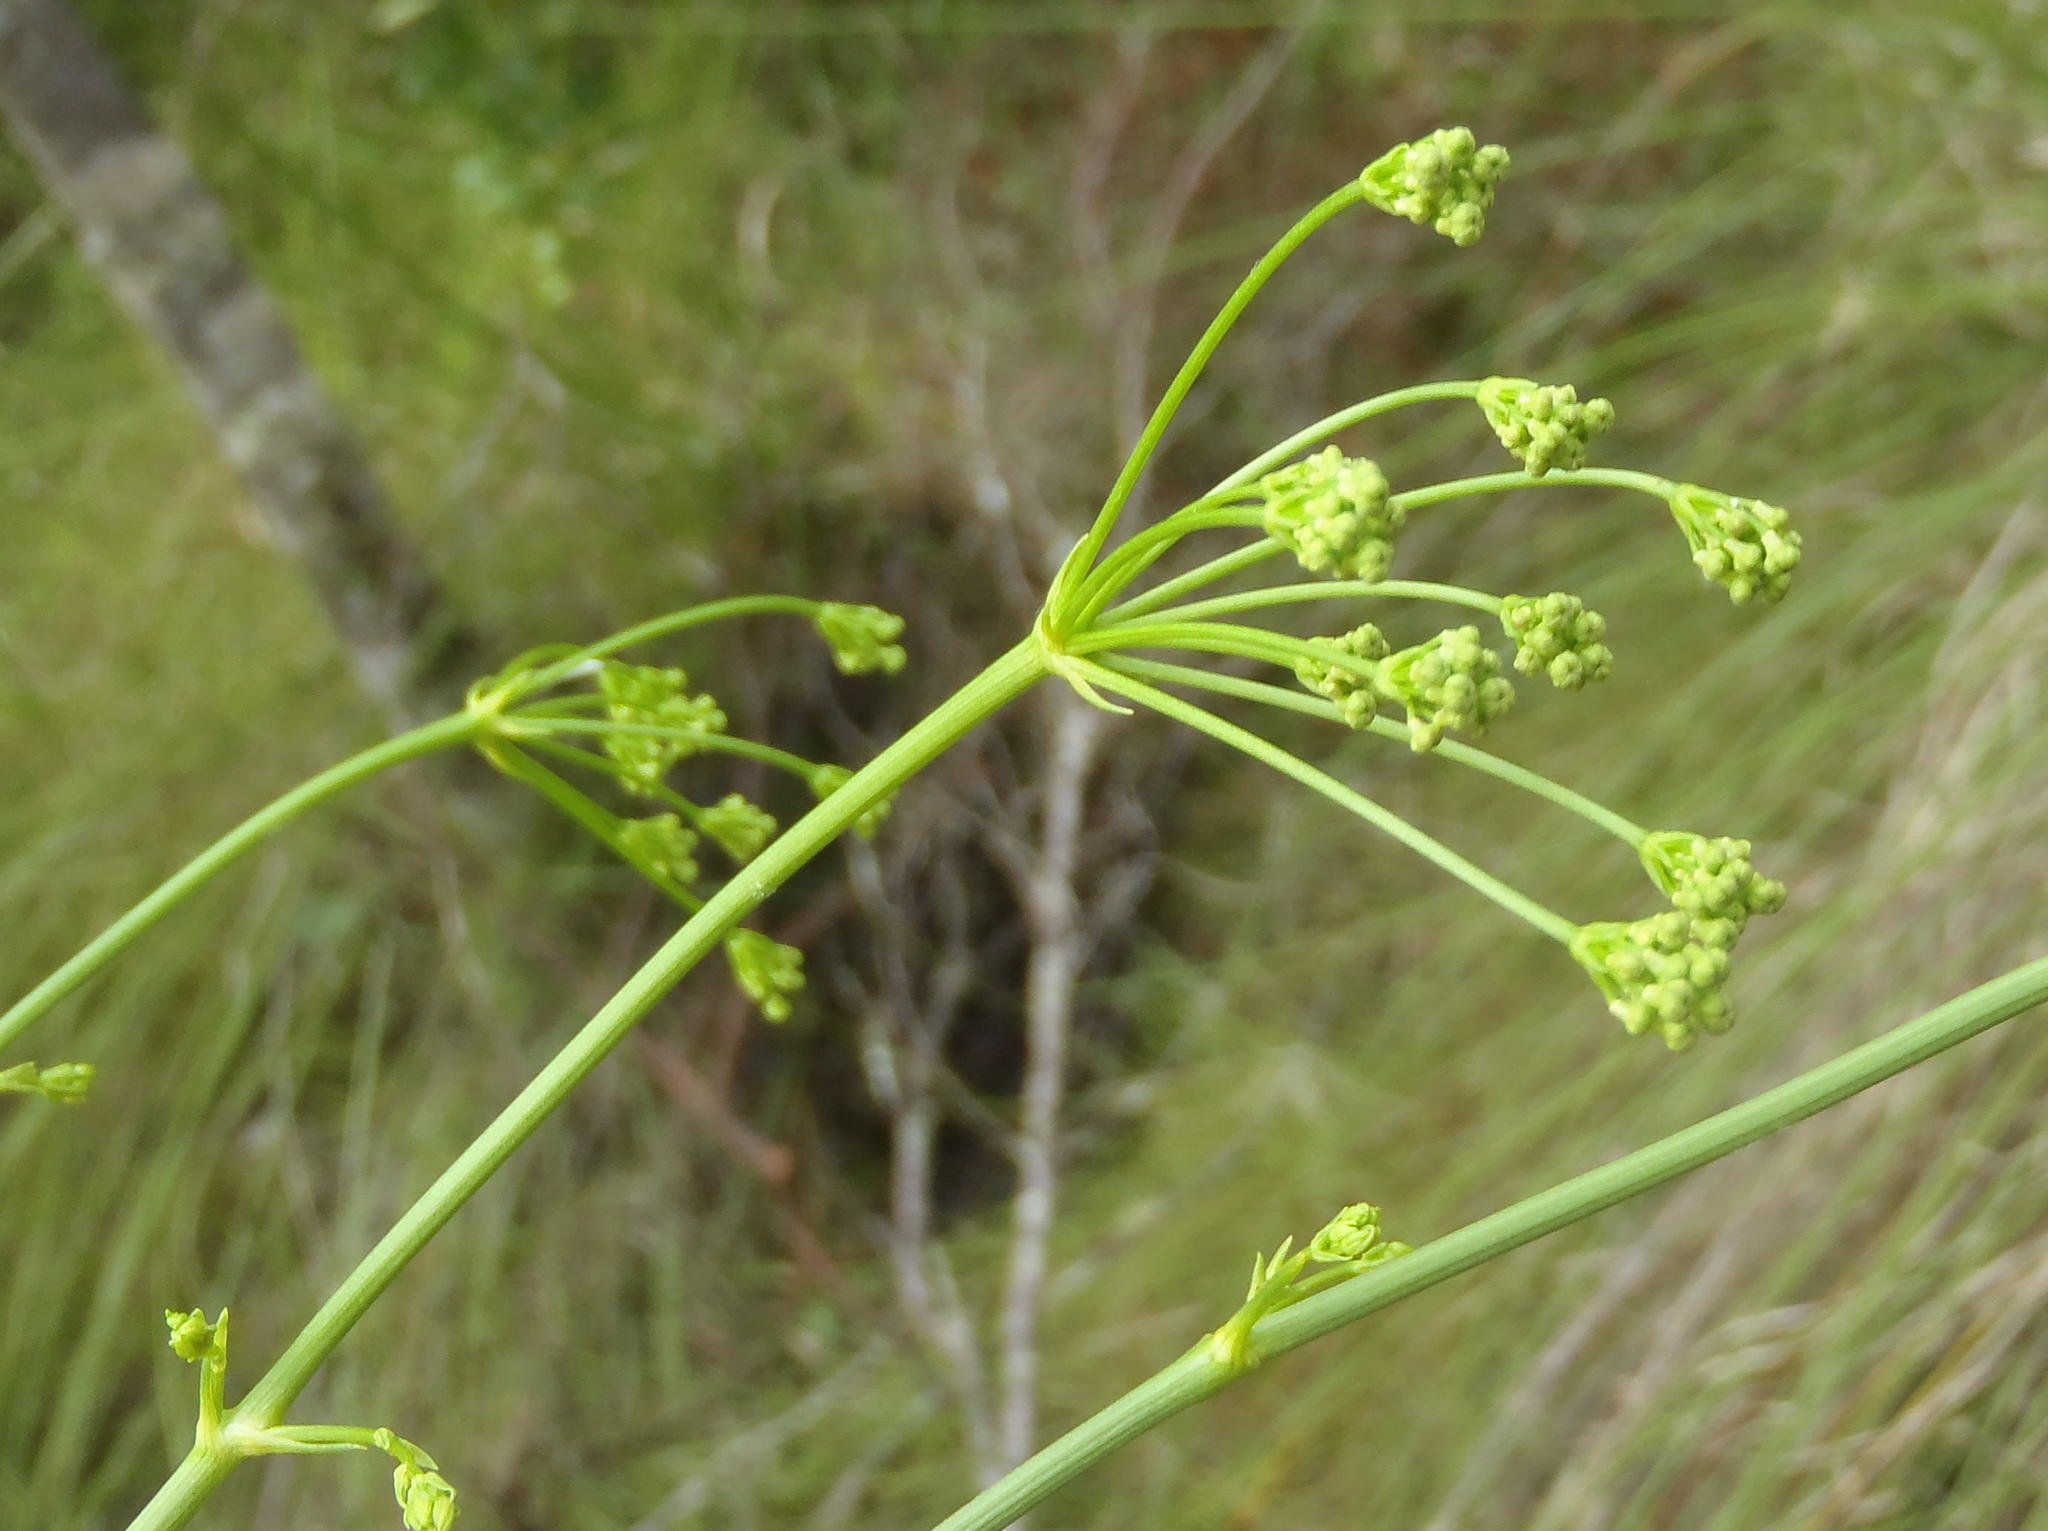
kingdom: Plantae
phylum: Tracheophyta
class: Magnoliopsida
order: Apiales
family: Apiaceae
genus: Anginon
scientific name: Anginon difforme
